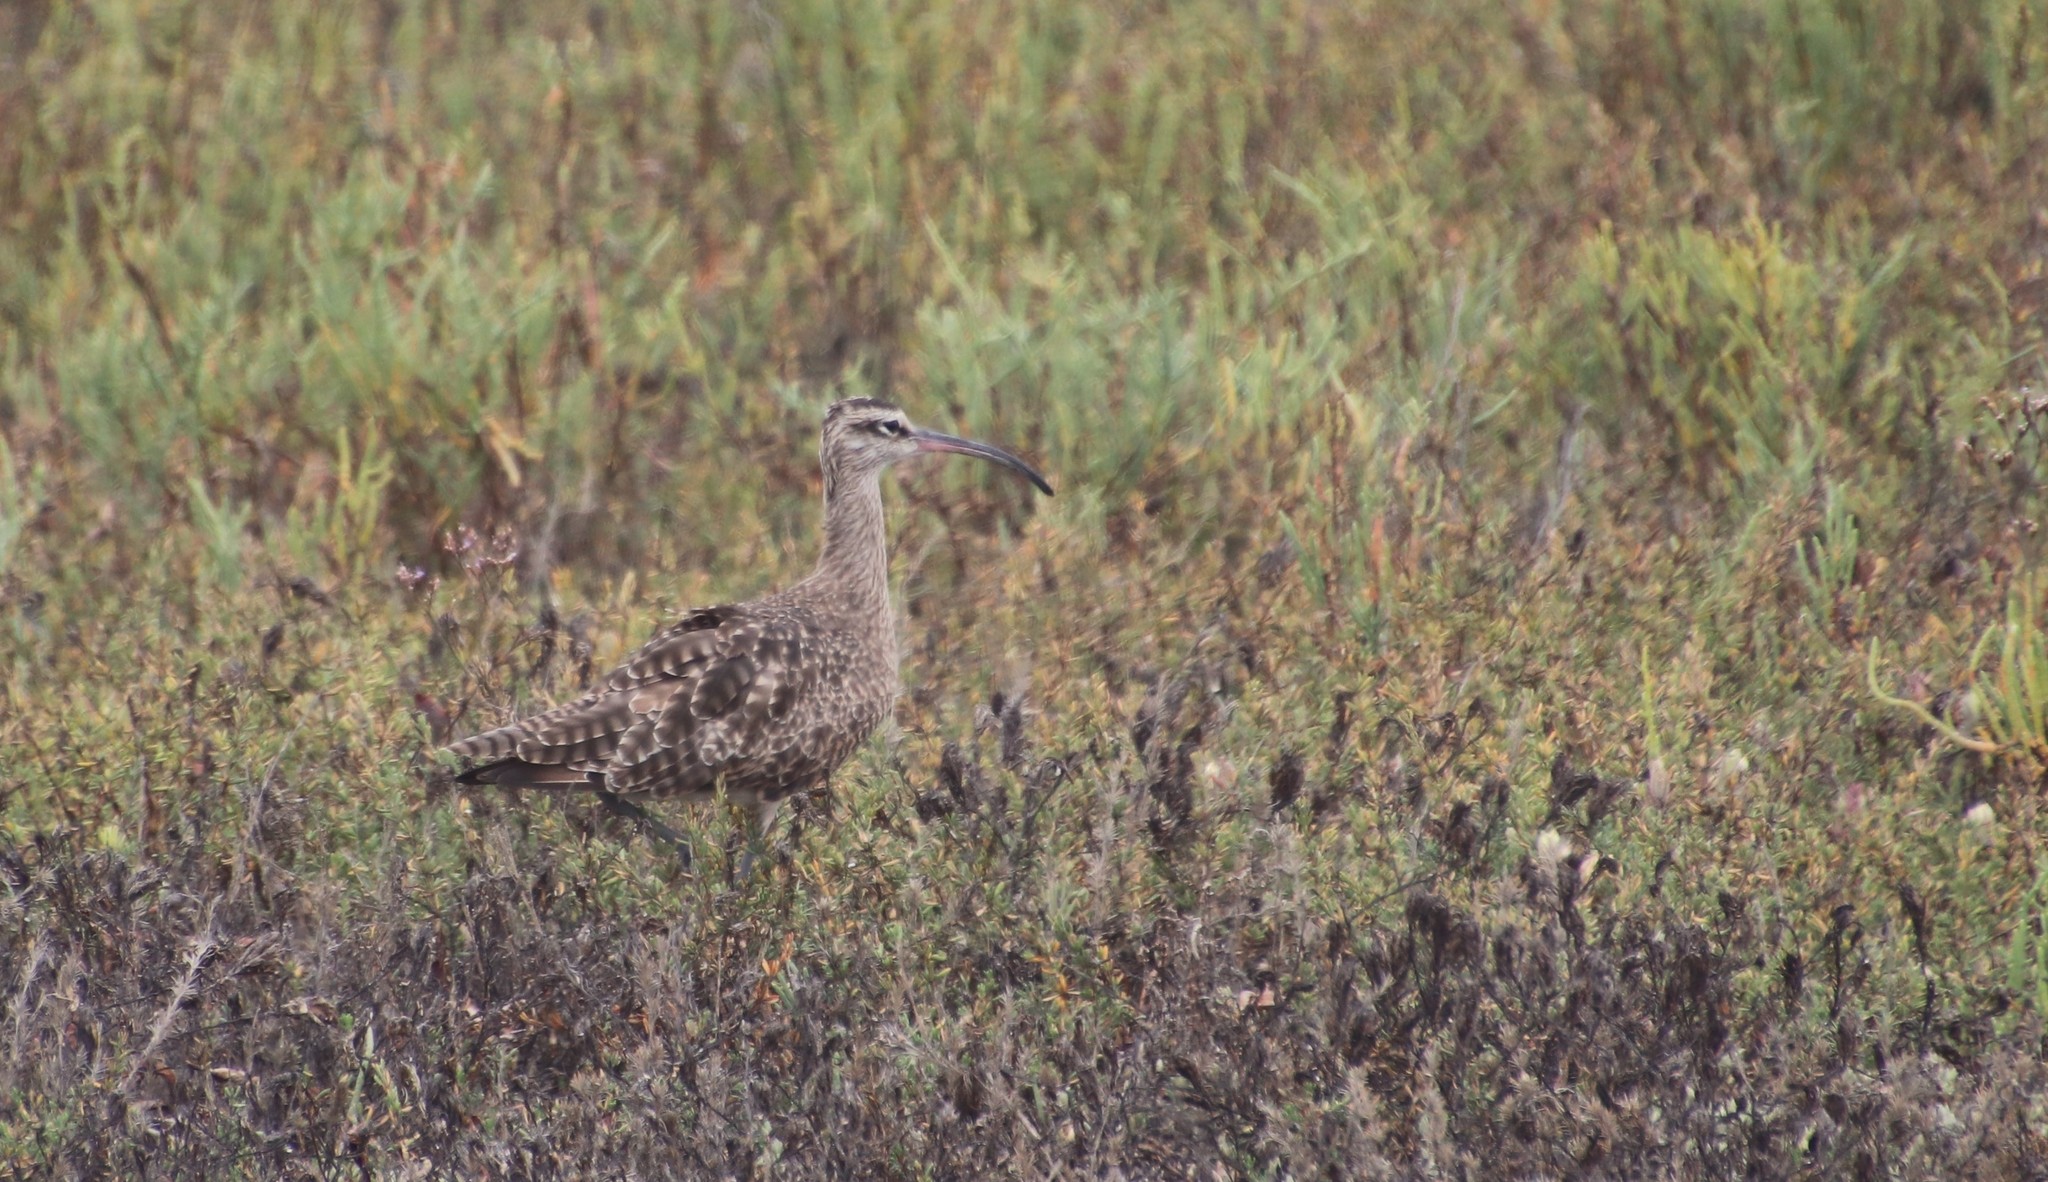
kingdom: Animalia
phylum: Chordata
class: Aves
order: Charadriiformes
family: Scolopacidae
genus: Numenius
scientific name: Numenius phaeopus
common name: Whimbrel
